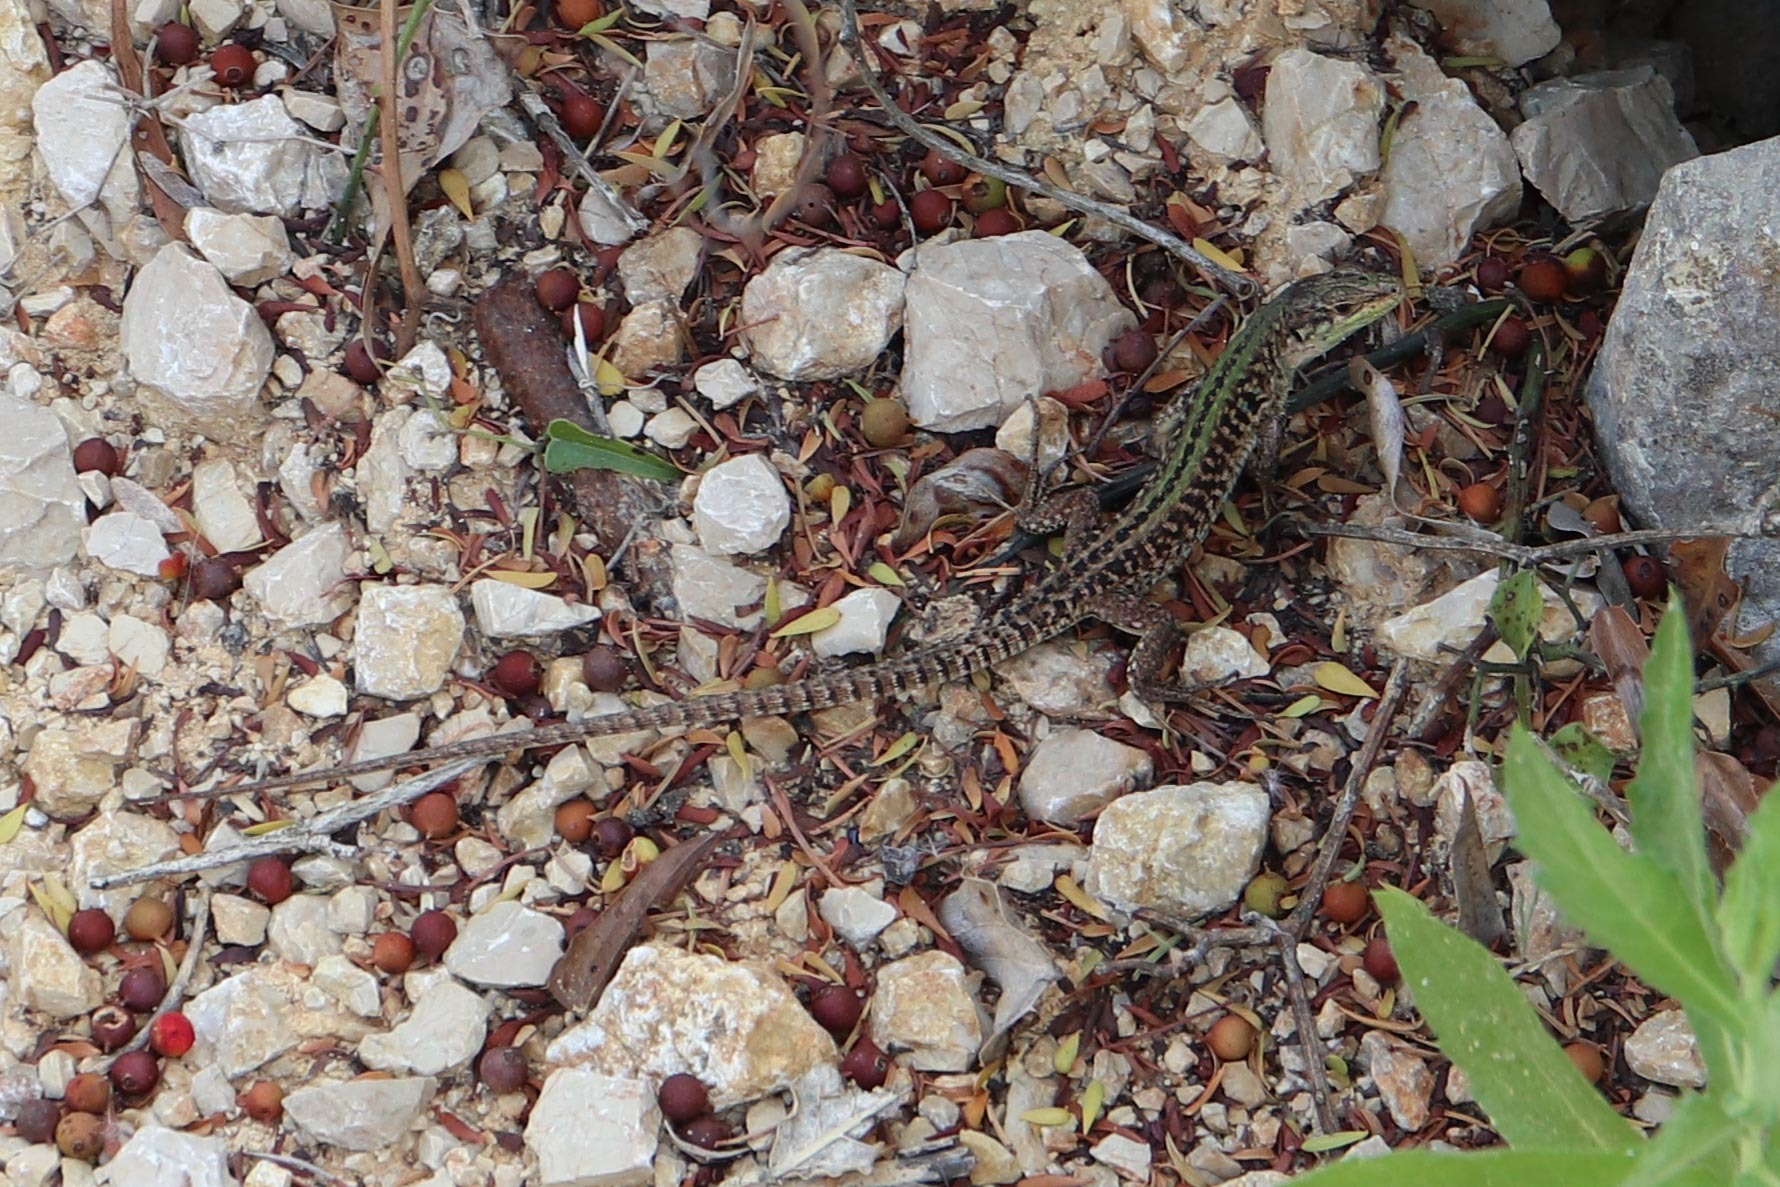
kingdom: Animalia
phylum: Chordata
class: Squamata
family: Lacertidae
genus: Podarcis
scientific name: Podarcis siculus
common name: Italian wall lizard
